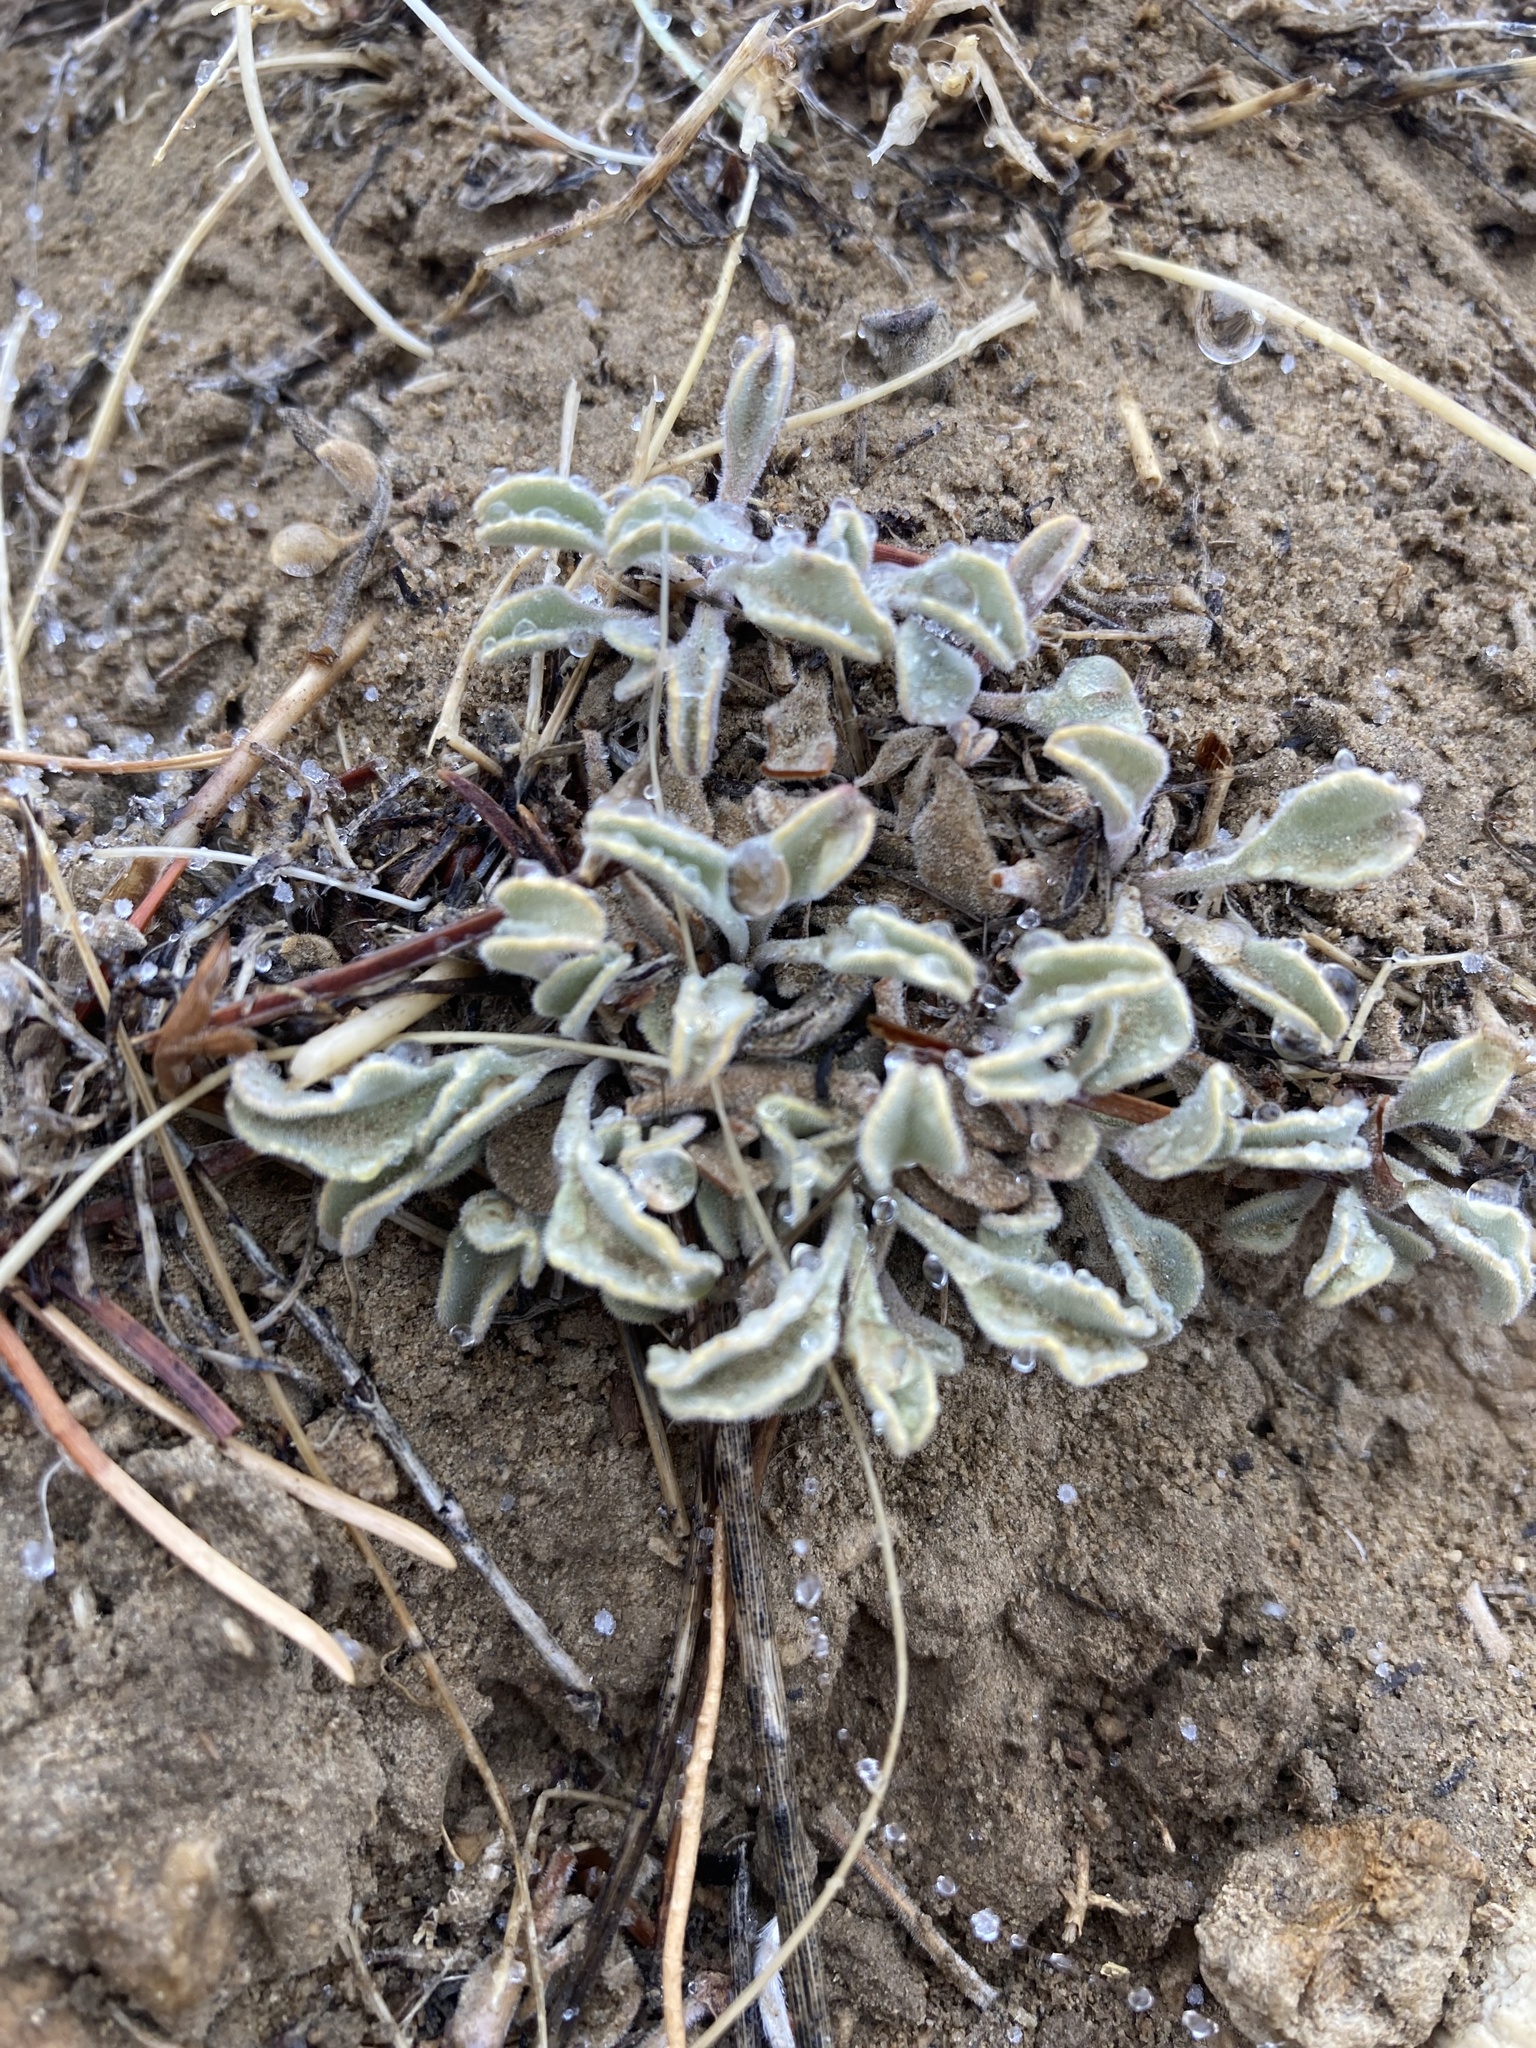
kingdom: Plantae
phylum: Tracheophyta
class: Magnoliopsida
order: Lamiales
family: Plantaginaceae
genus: Penstemon
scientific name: Penstemon scapoides
